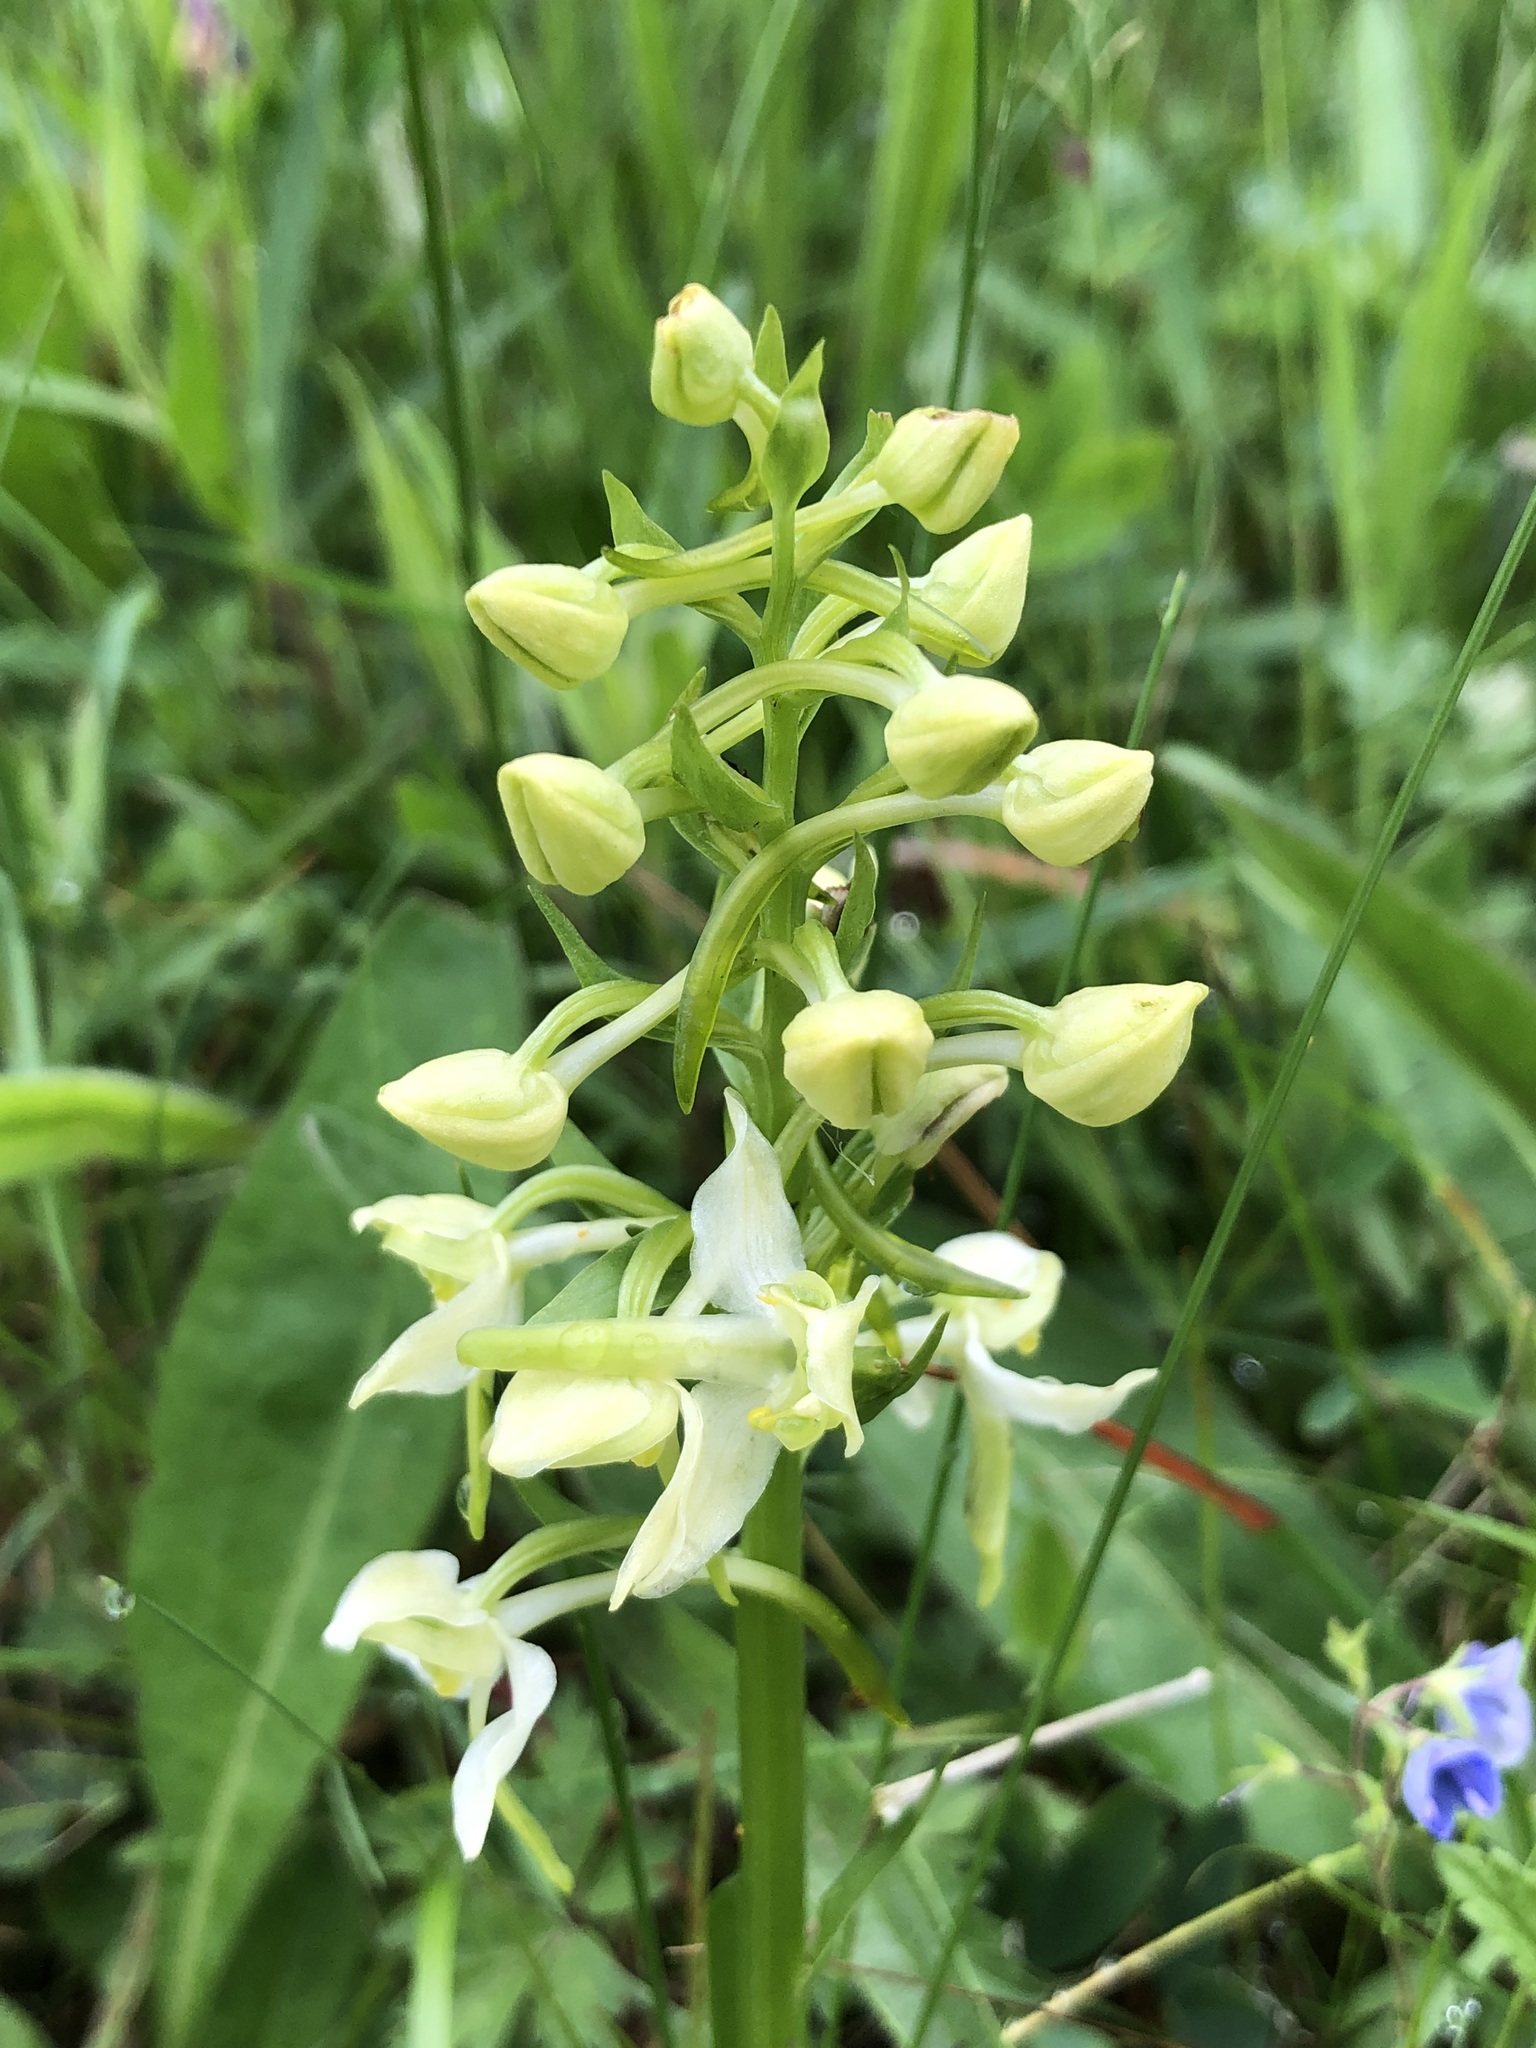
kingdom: Plantae
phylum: Tracheophyta
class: Liliopsida
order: Asparagales
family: Orchidaceae
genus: Platanthera
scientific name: Platanthera chlorantha
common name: Greater butterfly-orchid
